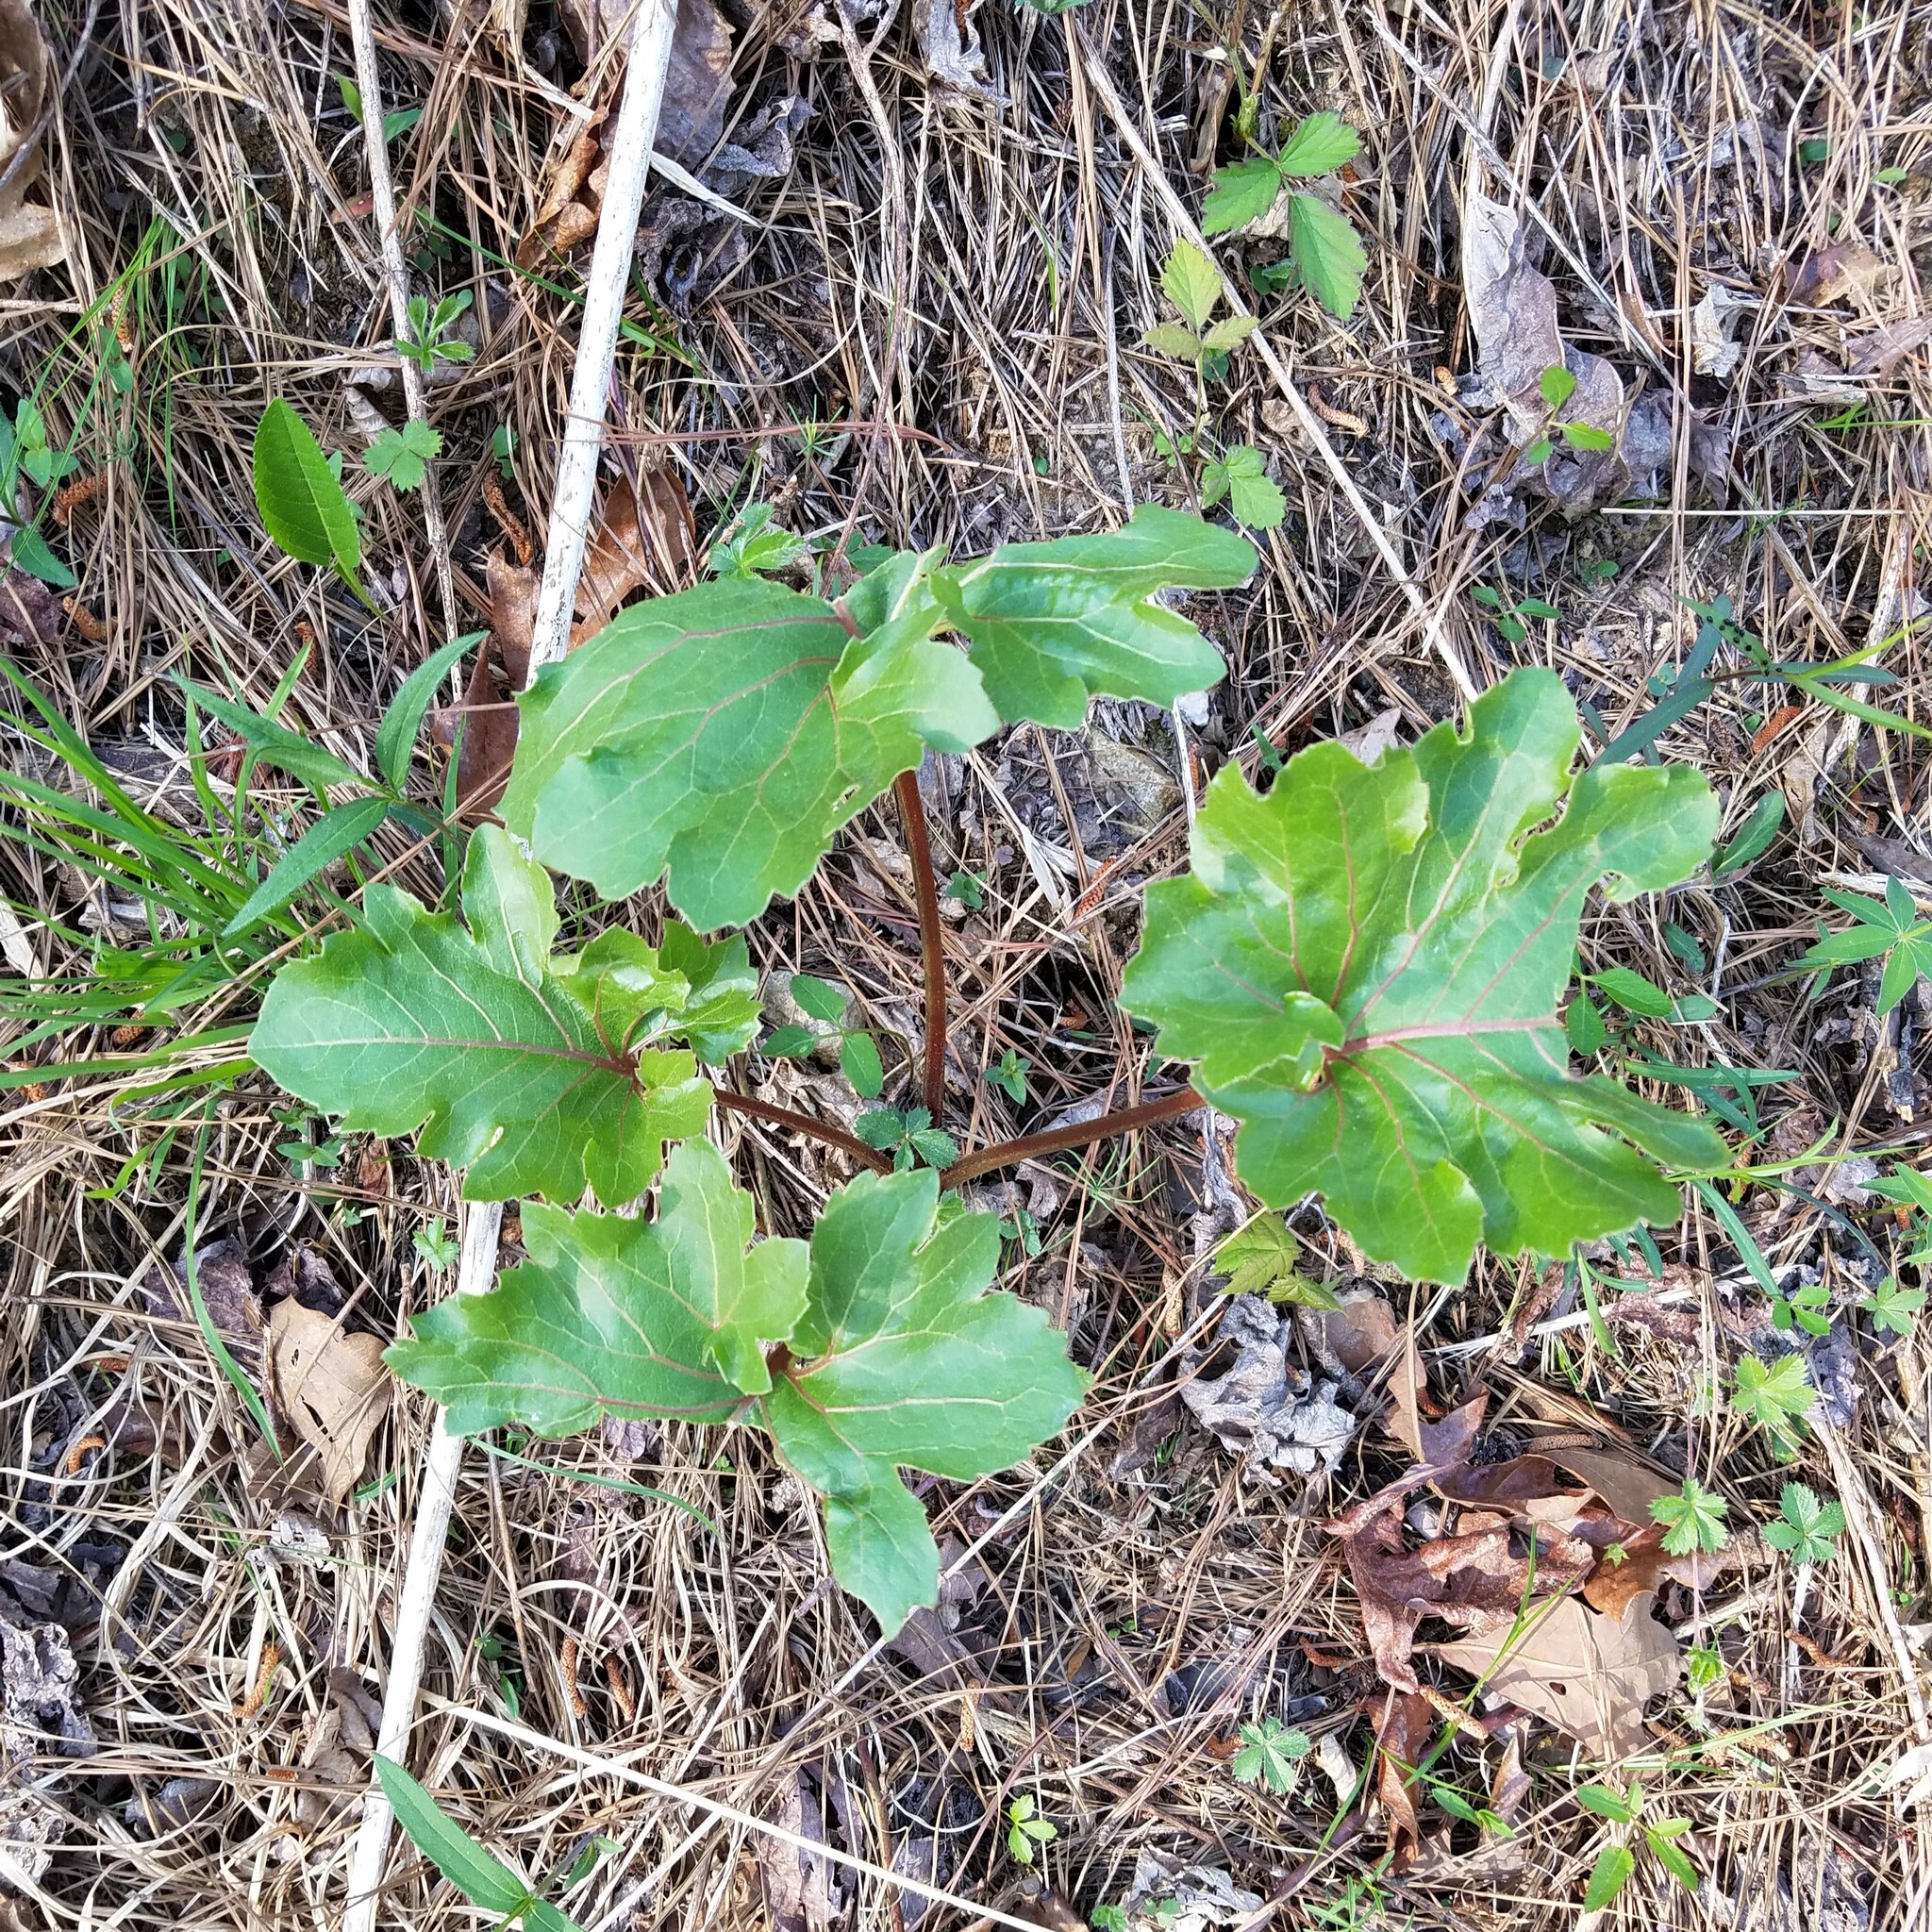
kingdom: Plantae
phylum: Tracheophyta
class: Magnoliopsida
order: Asterales
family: Asteraceae
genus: Silphium
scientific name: Silphium compositum
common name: Lesser basal-leaf rosinweed
